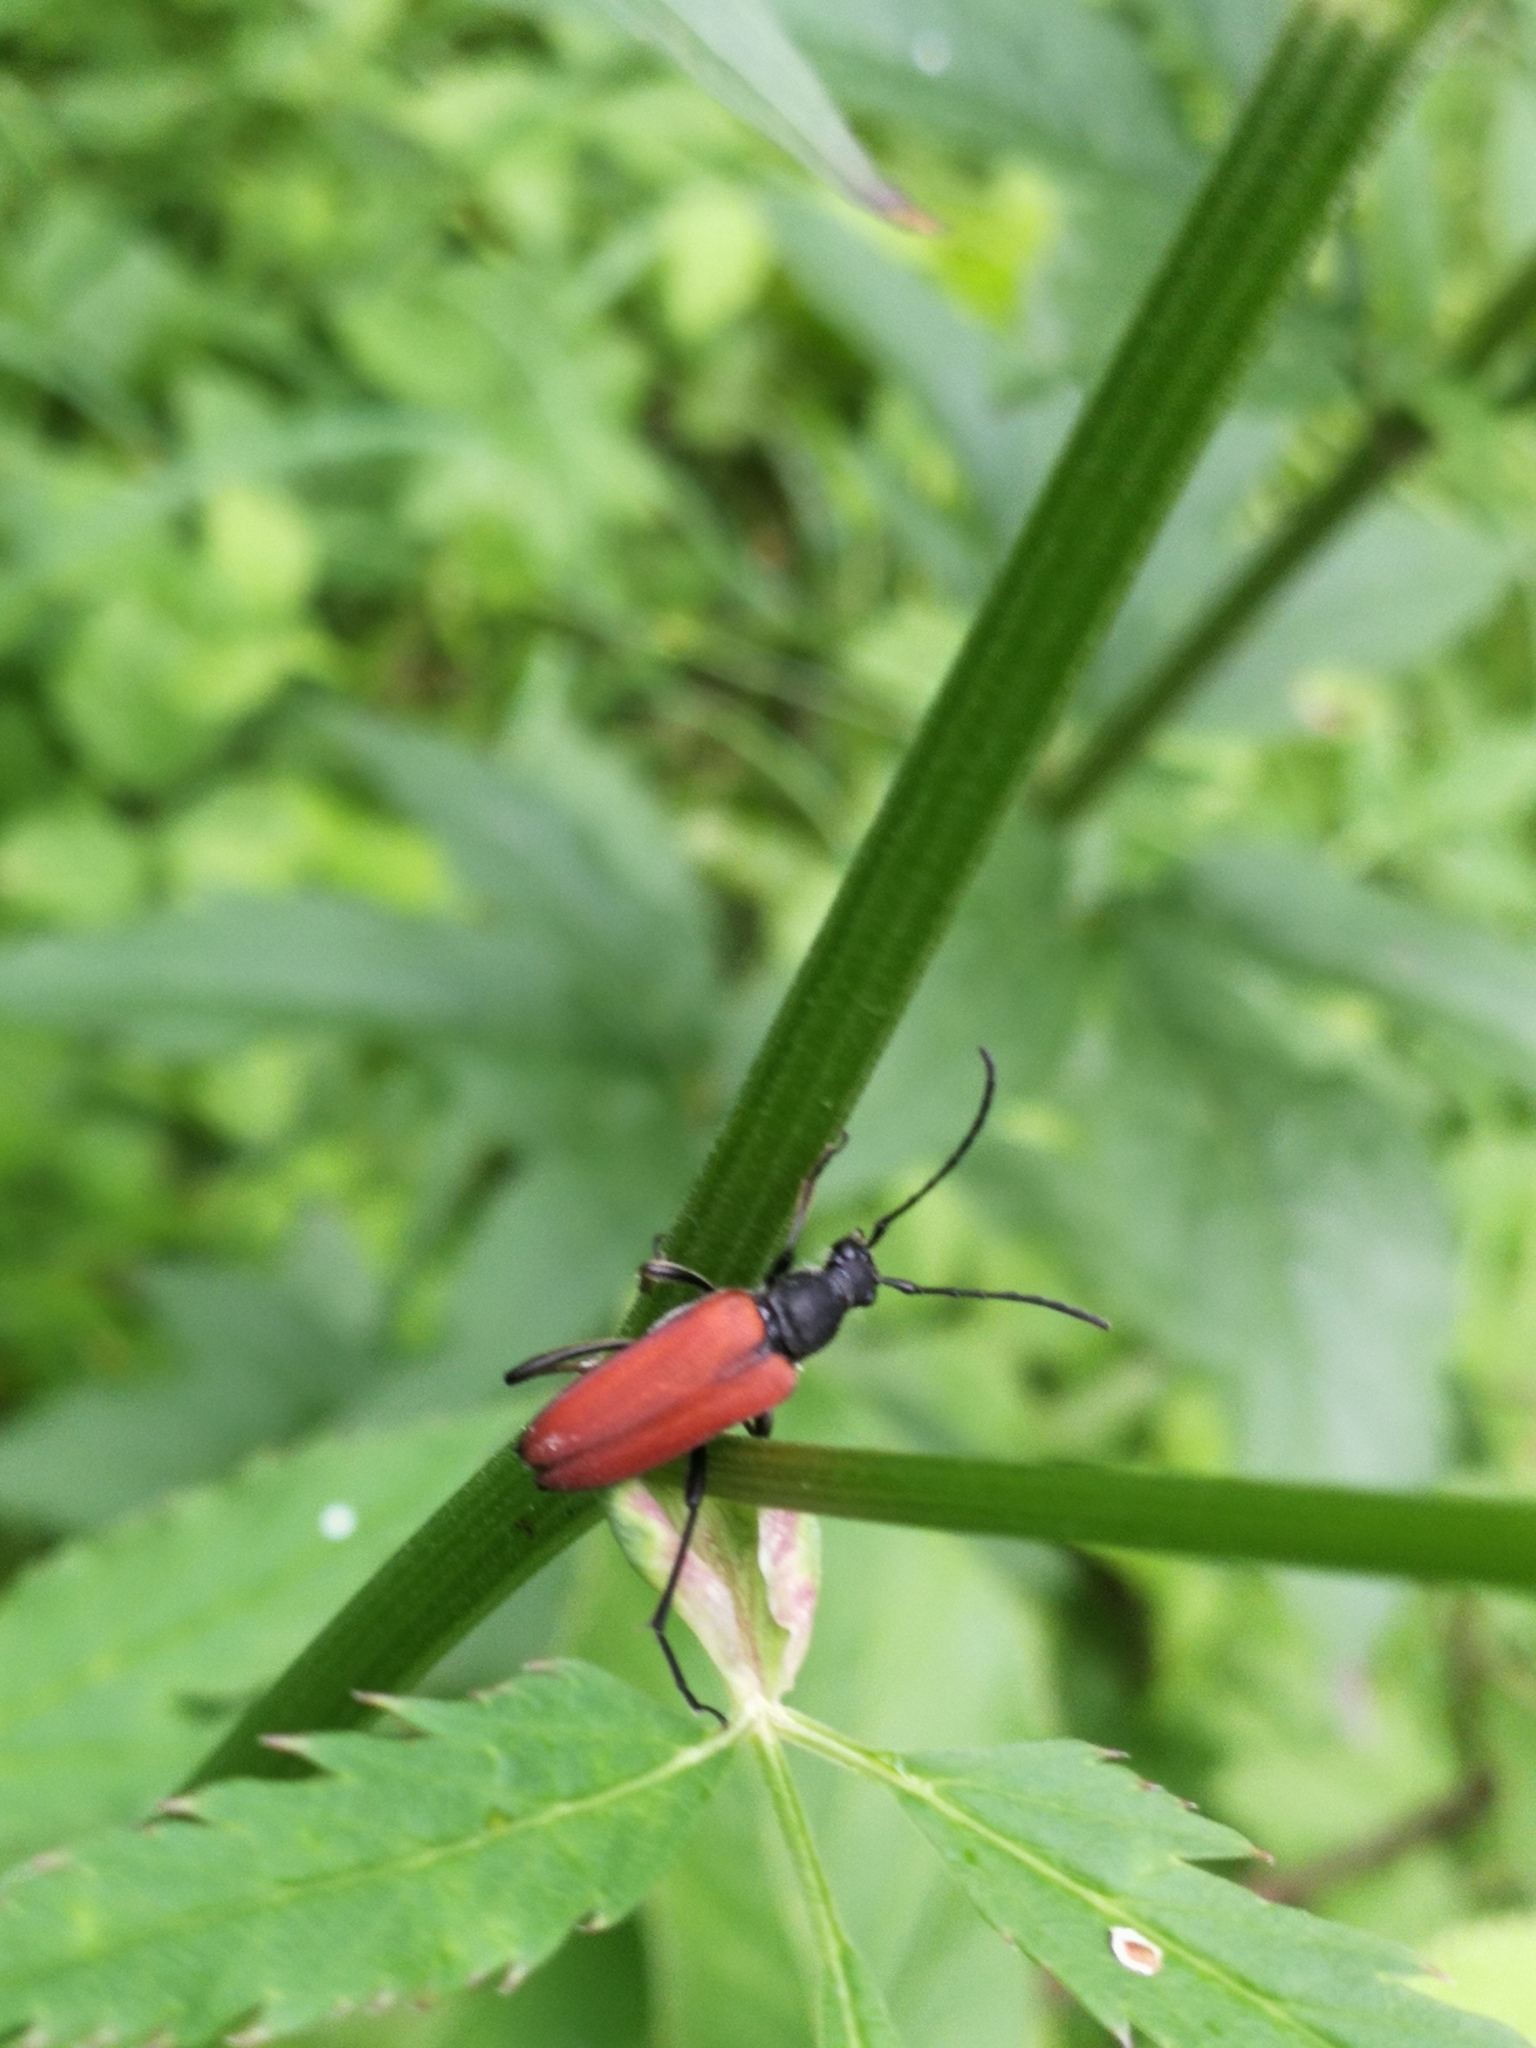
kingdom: Animalia
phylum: Arthropoda
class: Insecta
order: Coleoptera
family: Cerambycidae
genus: Anastrangalia
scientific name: Anastrangalia dubia
